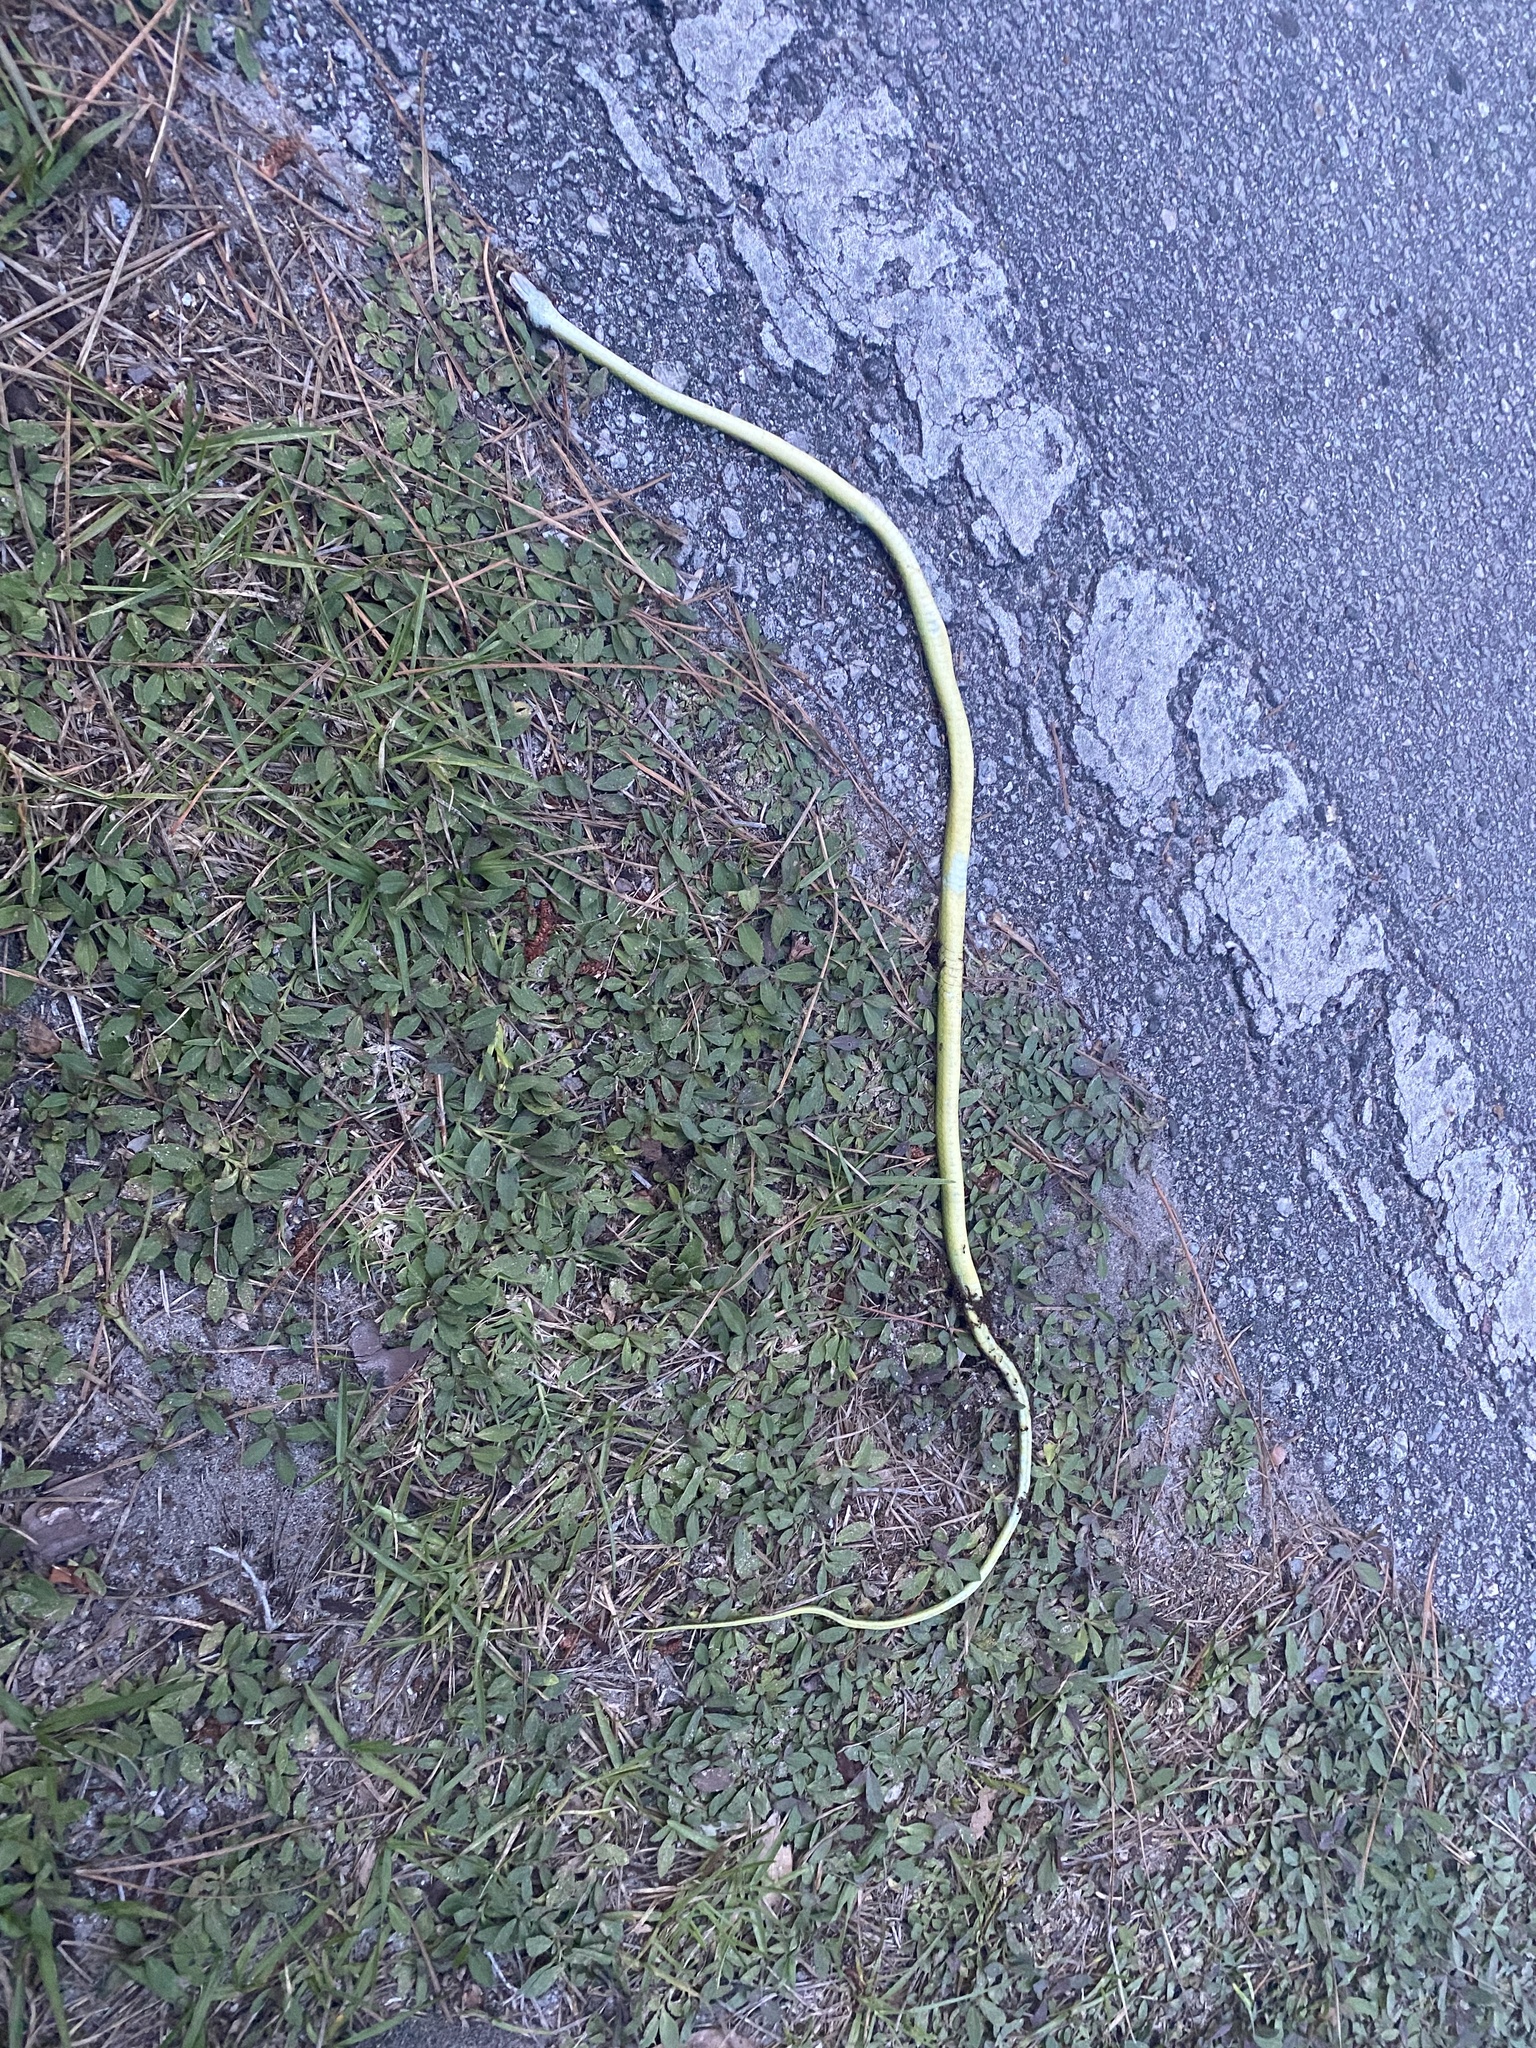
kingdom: Animalia
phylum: Chordata
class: Squamata
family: Colubridae
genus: Opheodrys
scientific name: Opheodrys aestivus
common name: Rough greensnake
